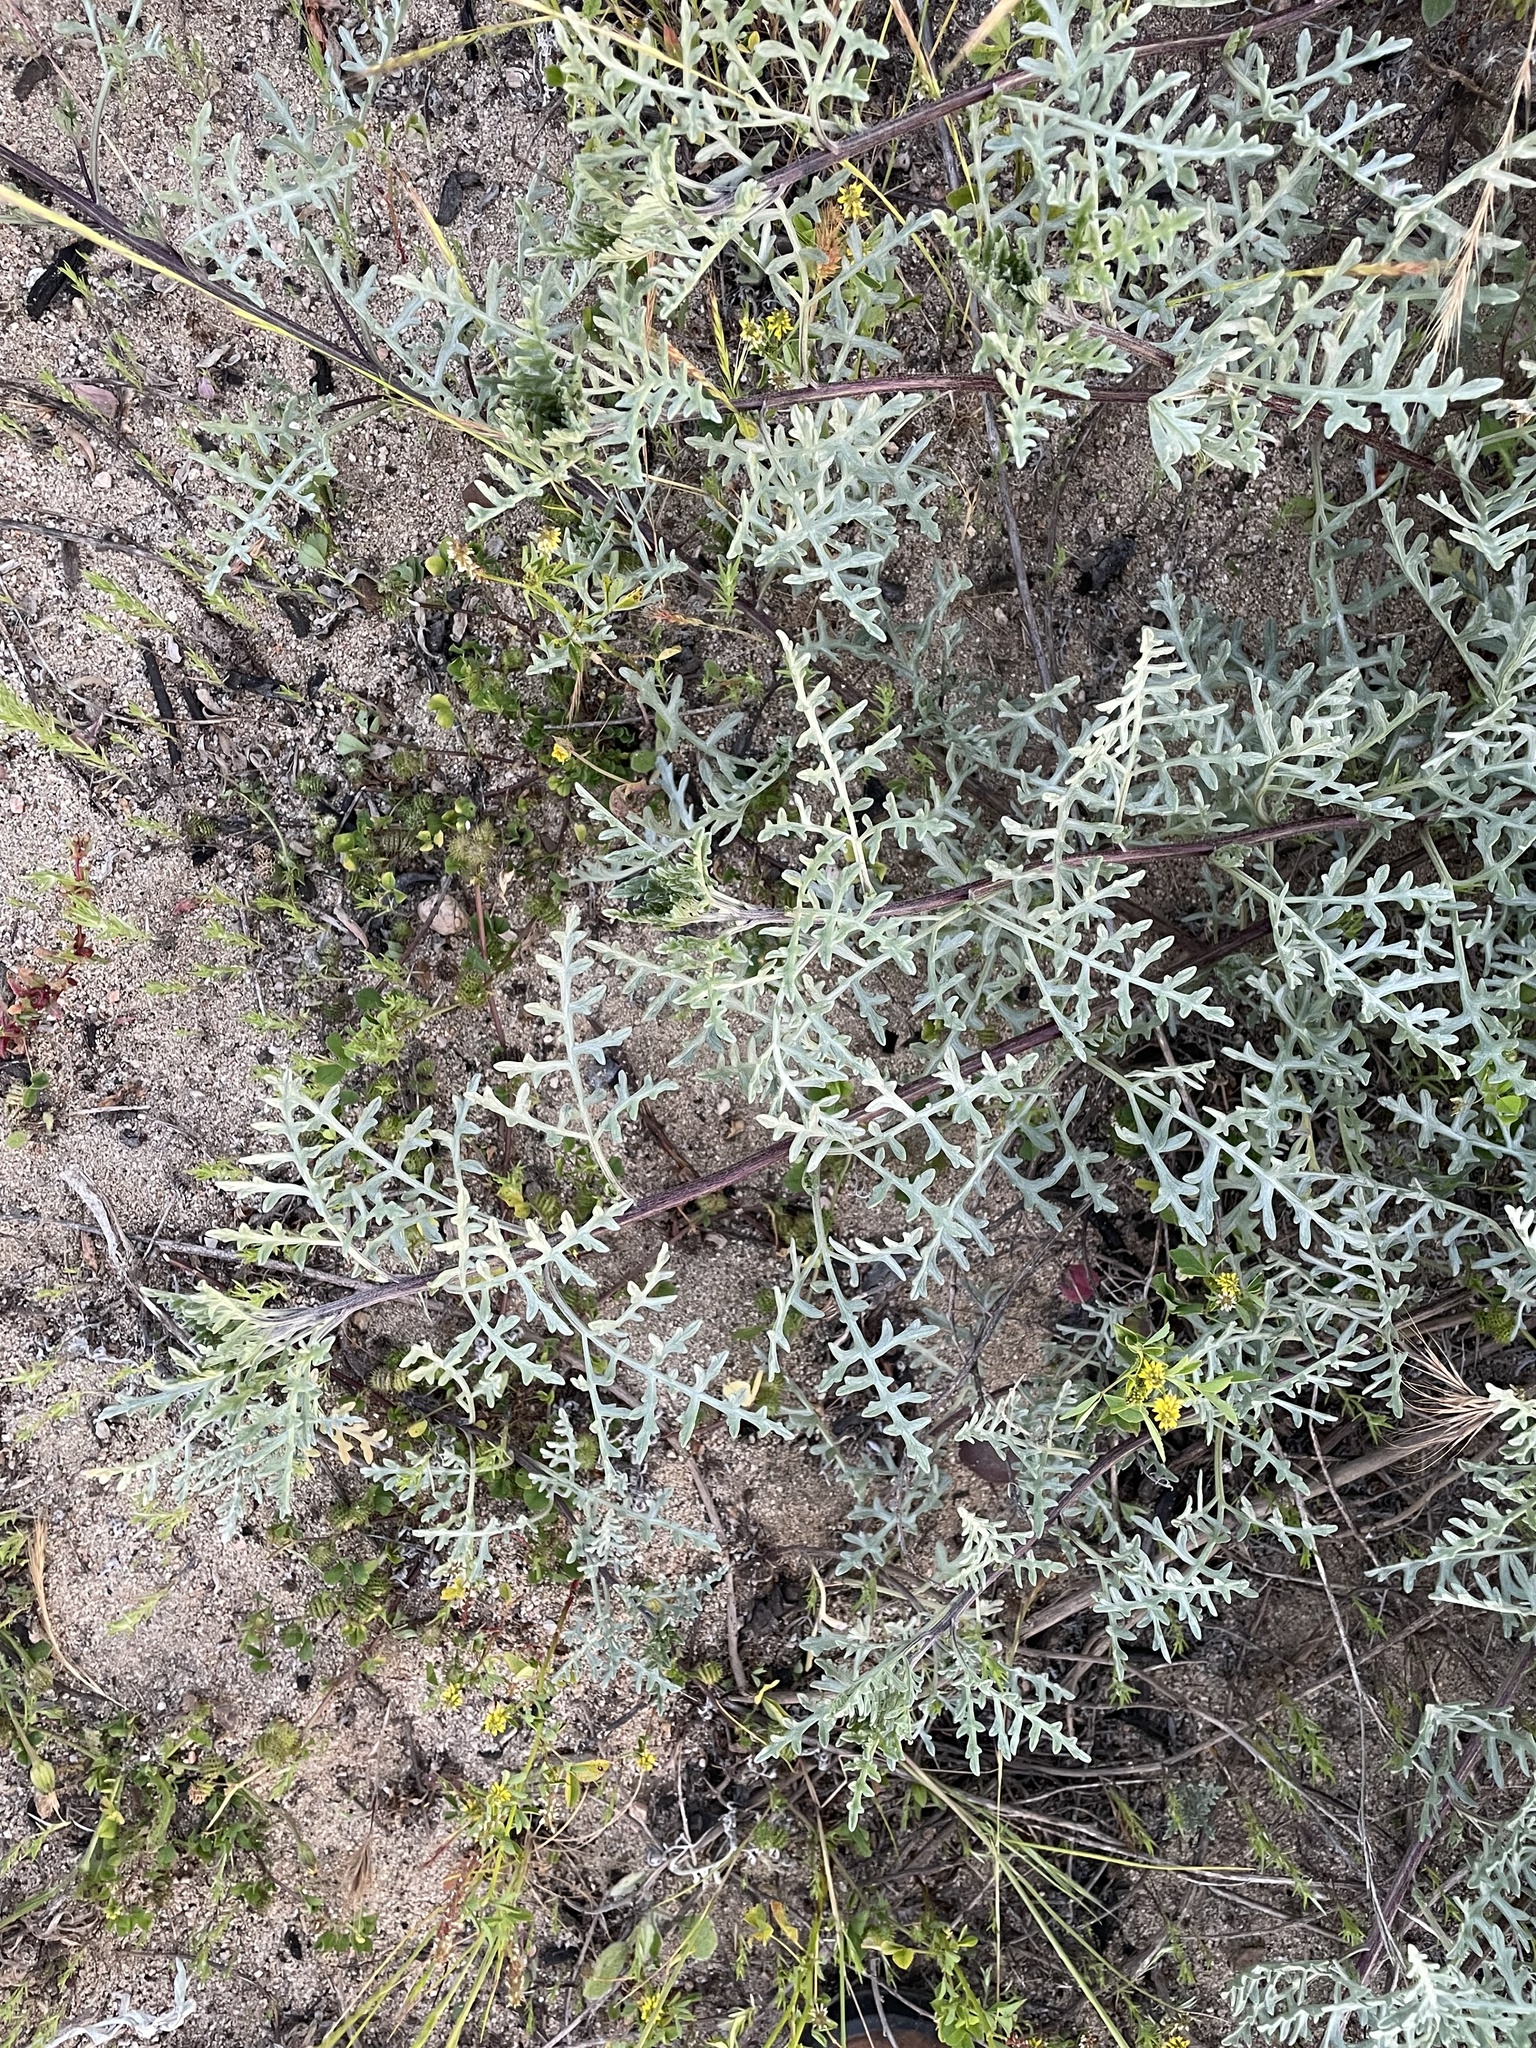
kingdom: Plantae
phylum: Tracheophyta
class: Magnoliopsida
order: Asterales
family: Asteraceae
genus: Ambrosia
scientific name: Ambrosia chamissonis
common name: Beachbur
